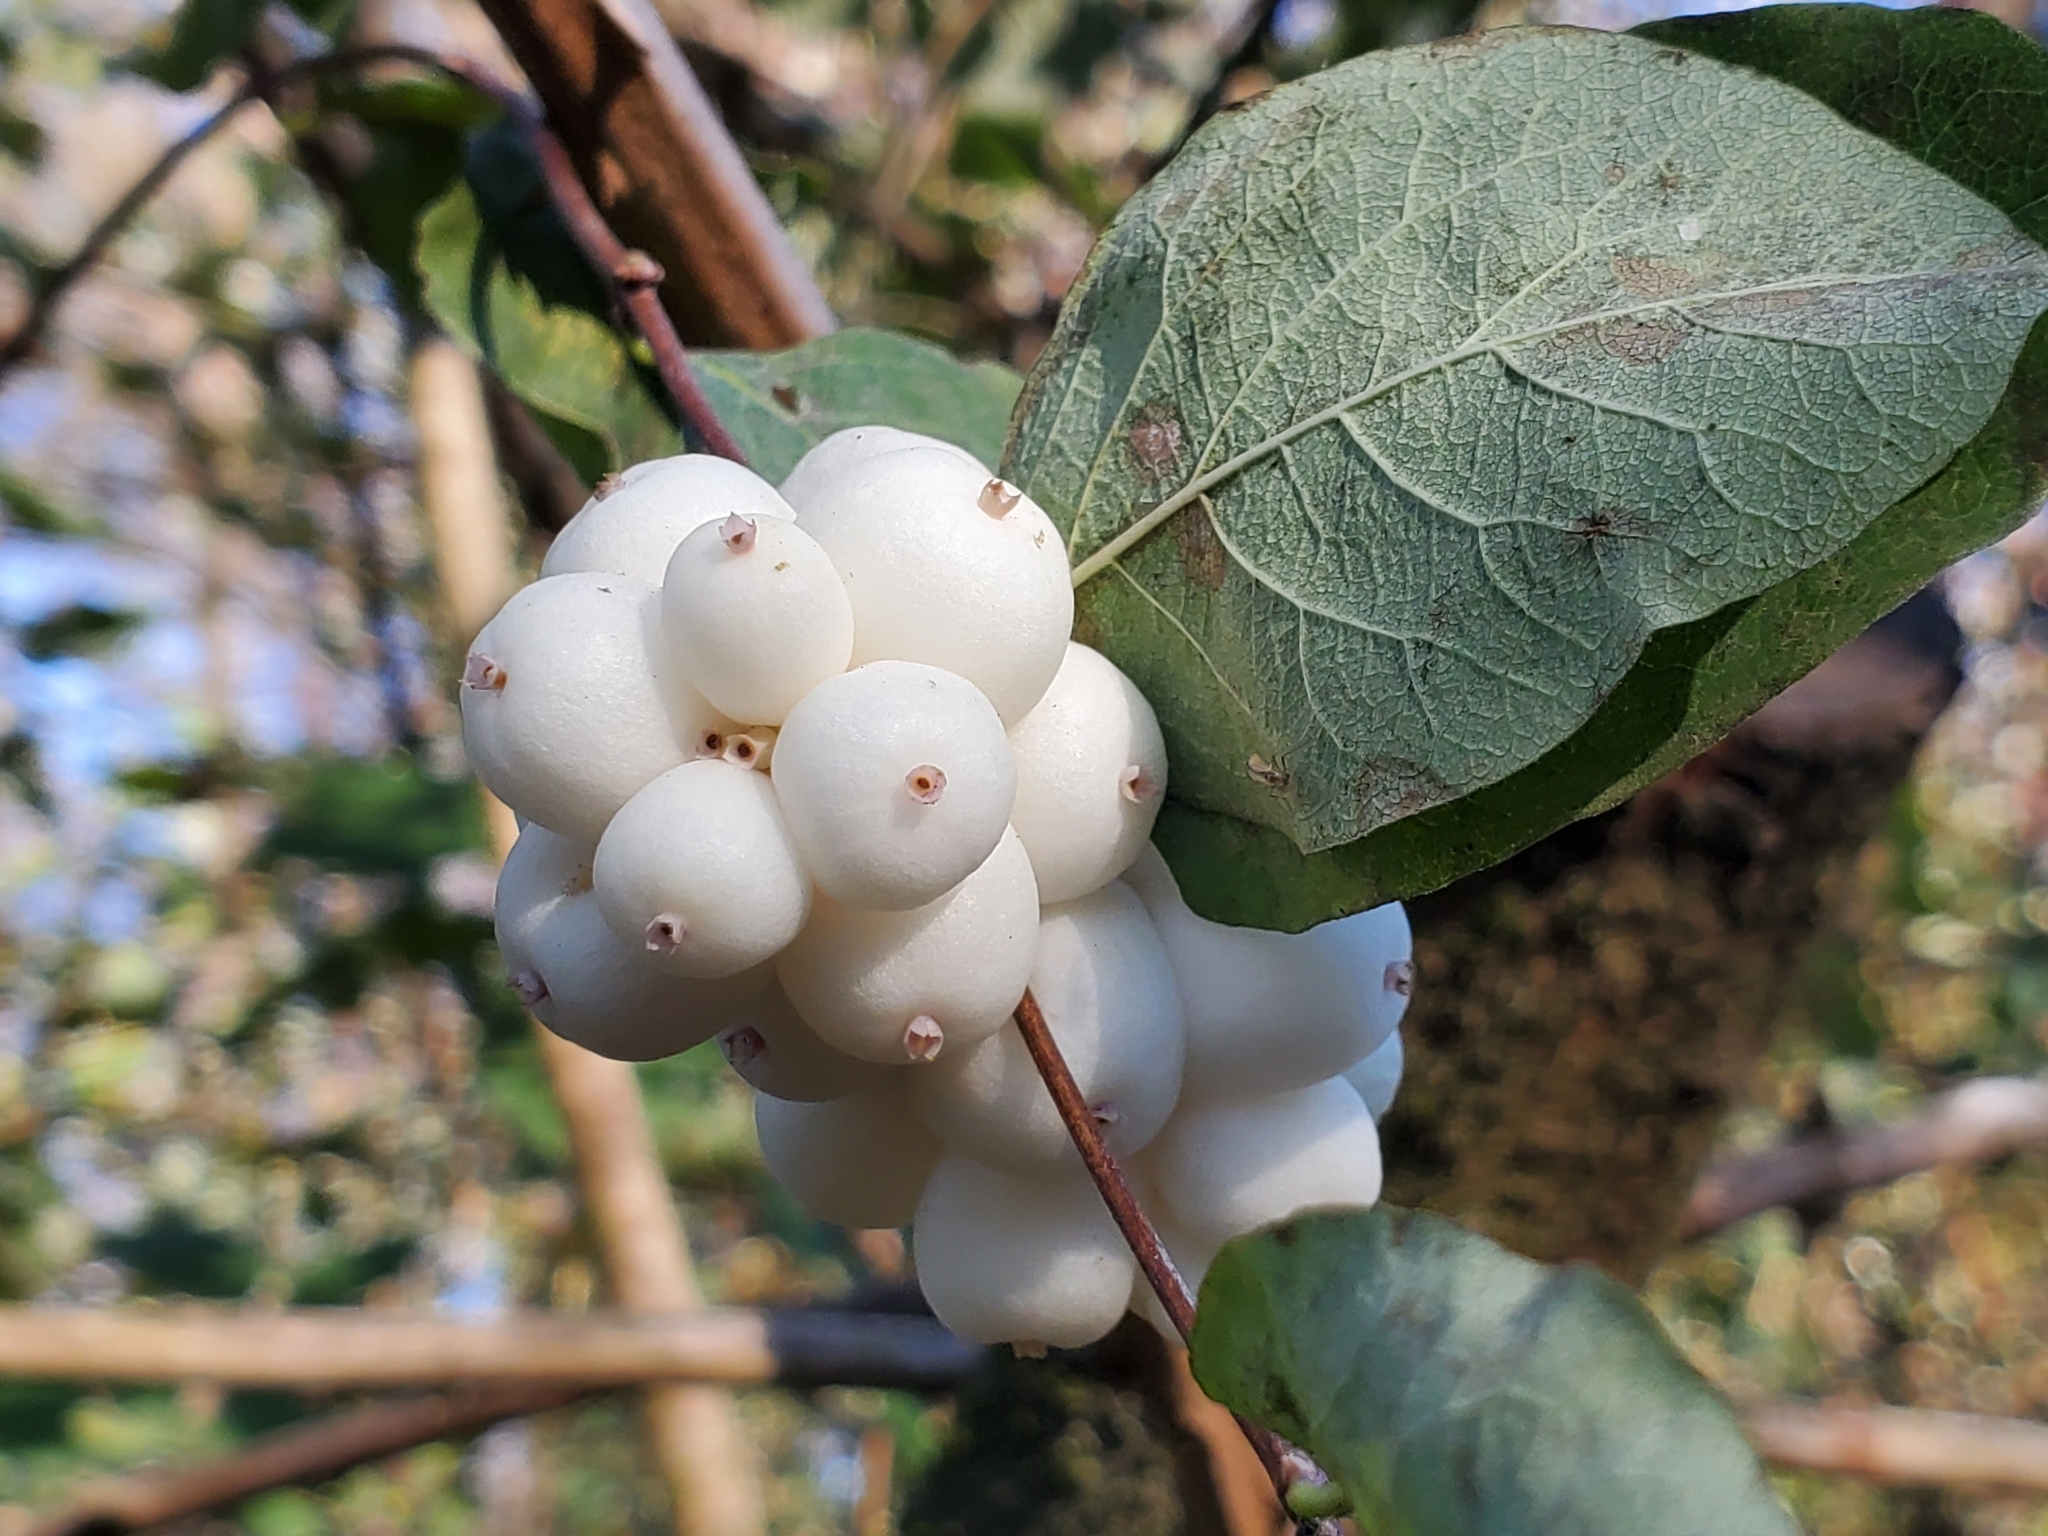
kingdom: Plantae
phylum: Tracheophyta
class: Magnoliopsida
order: Dipsacales
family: Caprifoliaceae
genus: Symphoricarpos
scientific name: Symphoricarpos albus
